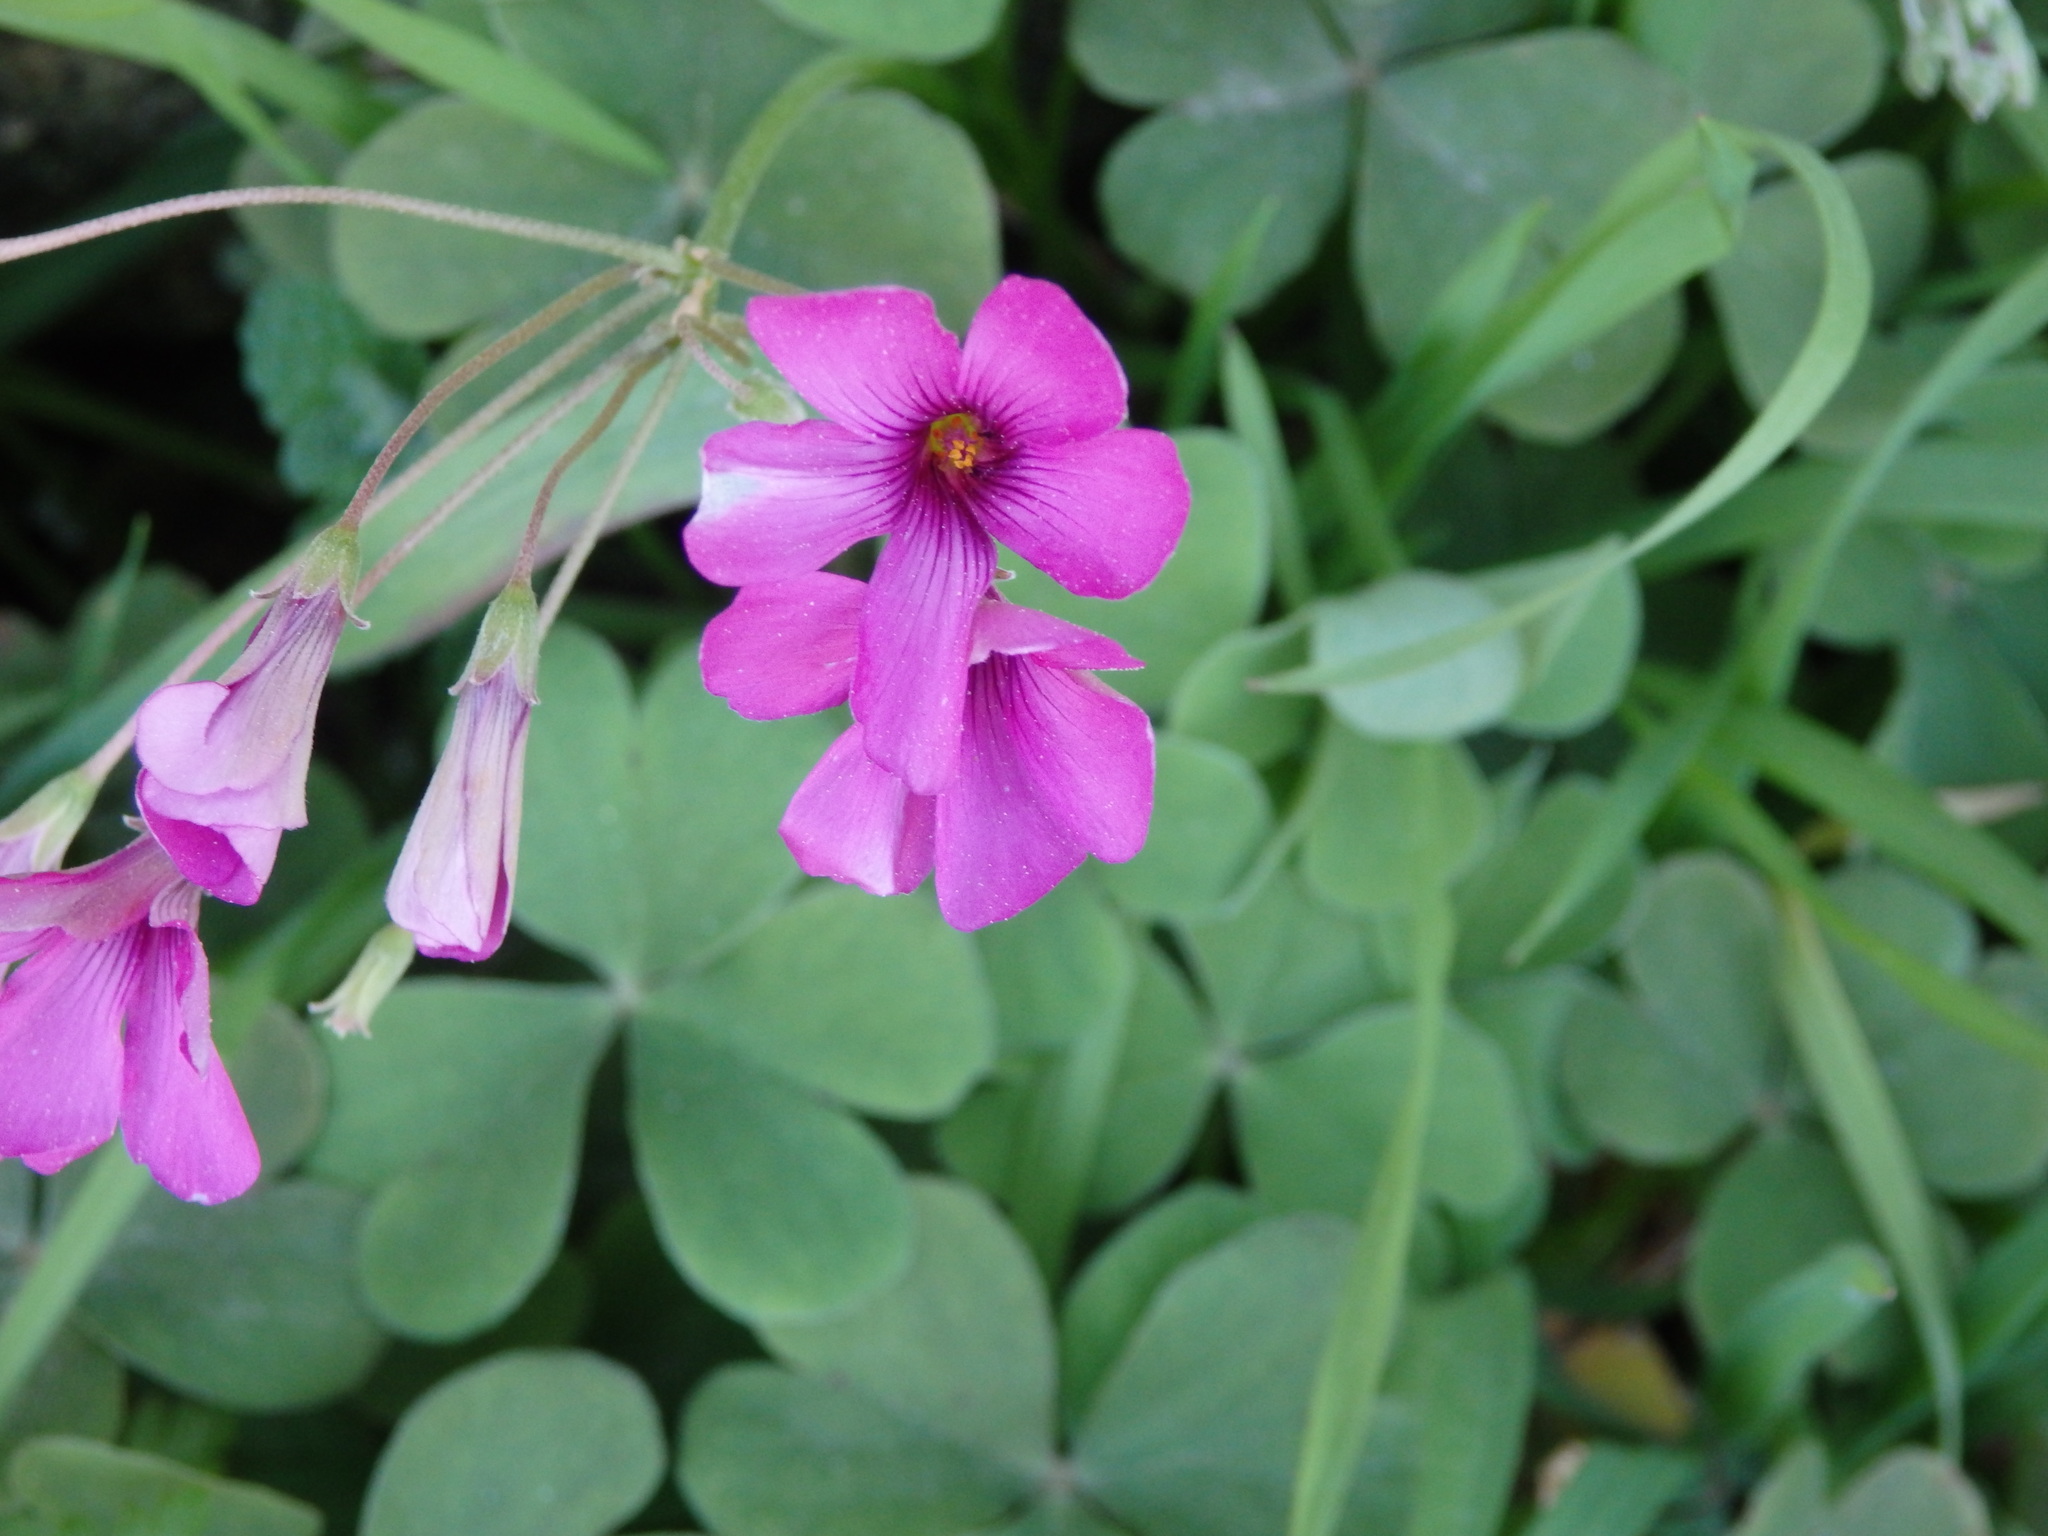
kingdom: Plantae
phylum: Tracheophyta
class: Magnoliopsida
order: Oxalidales
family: Oxalidaceae
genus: Oxalis
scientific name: Oxalis articulata
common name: Pink-sorrel
